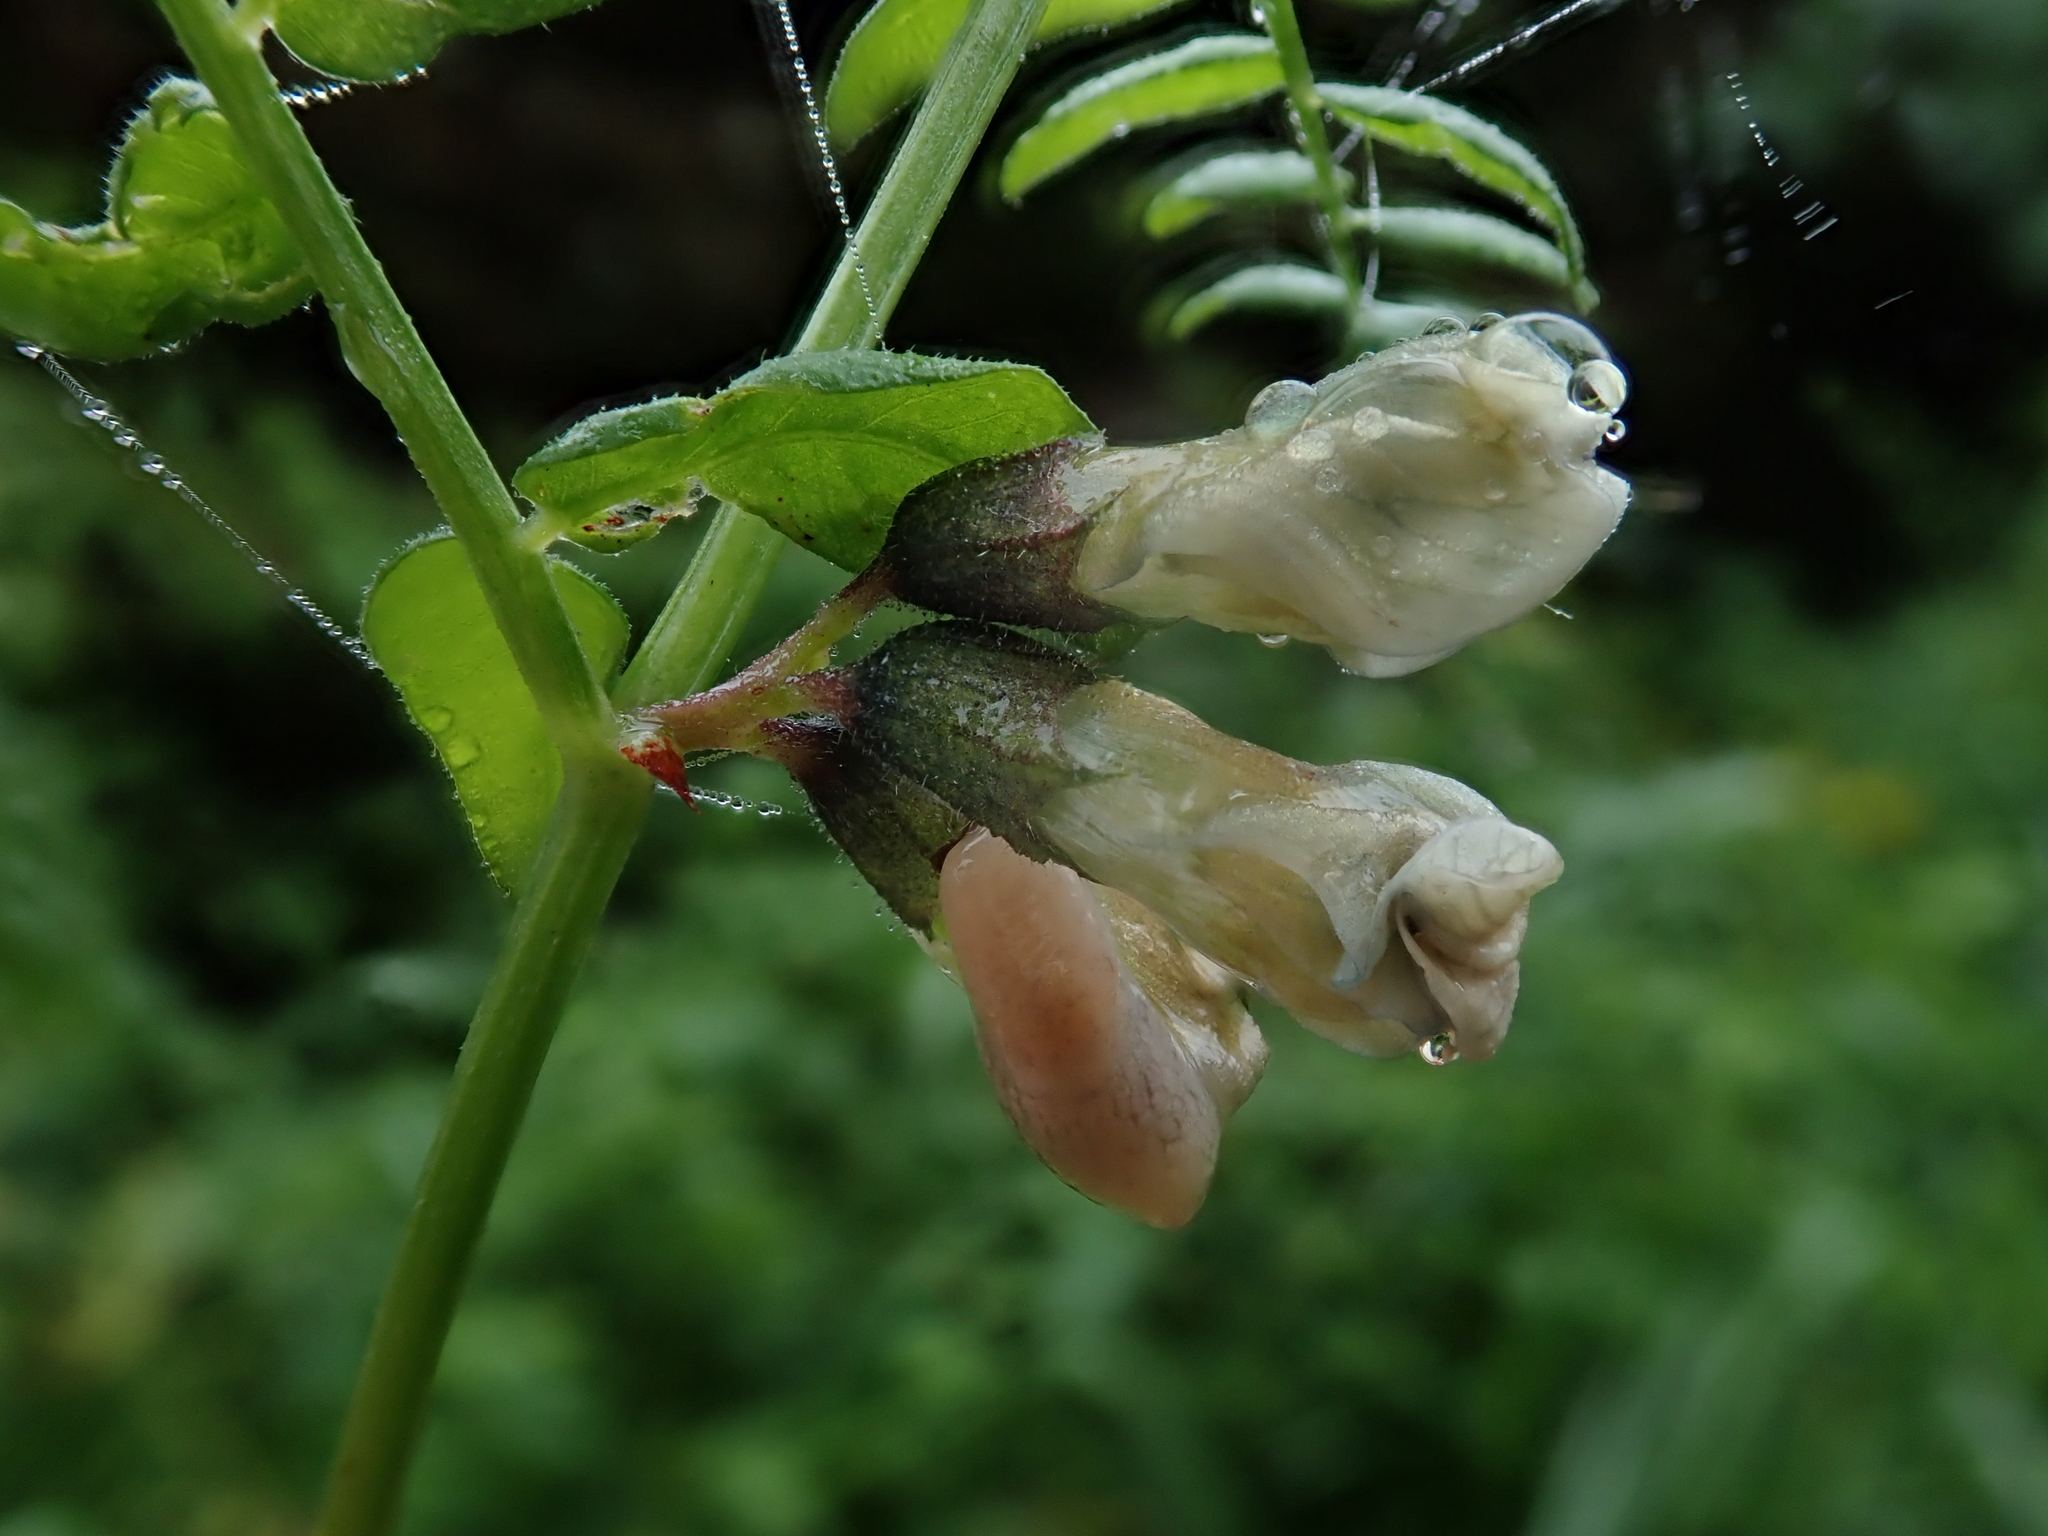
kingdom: Plantae
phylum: Tracheophyta
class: Magnoliopsida
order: Fabales
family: Fabaceae
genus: Vicia
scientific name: Vicia sepium
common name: Bush vetch
